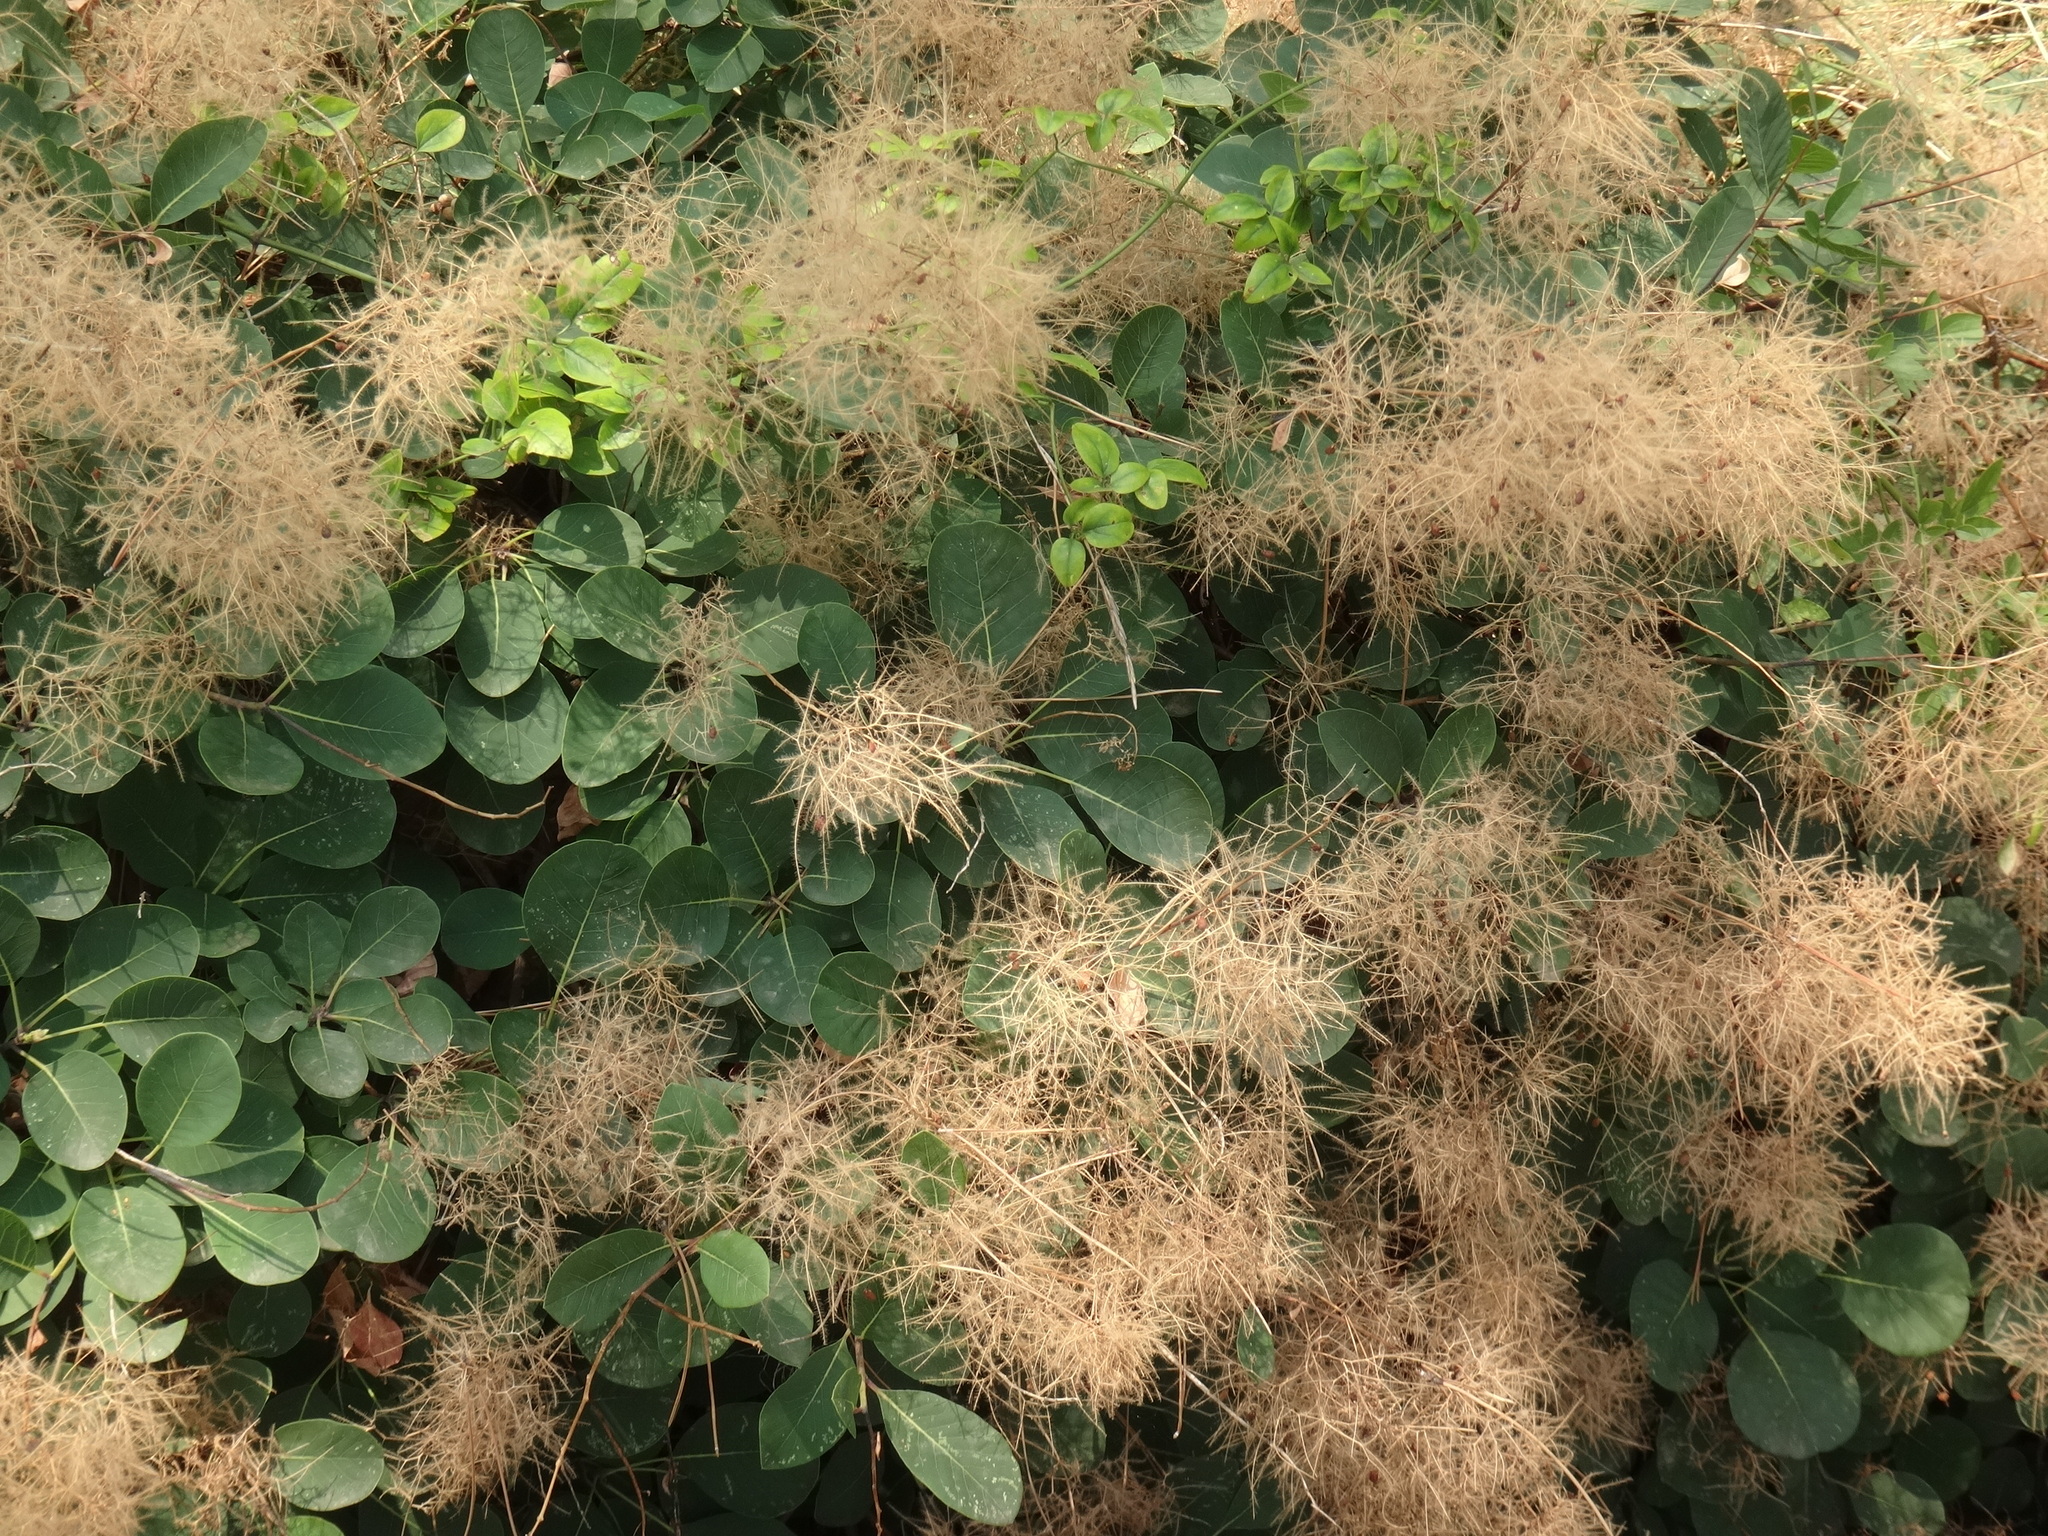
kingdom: Plantae
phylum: Tracheophyta
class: Magnoliopsida
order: Sapindales
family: Anacardiaceae
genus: Cotinus
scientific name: Cotinus coggygria
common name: Smoke-tree
